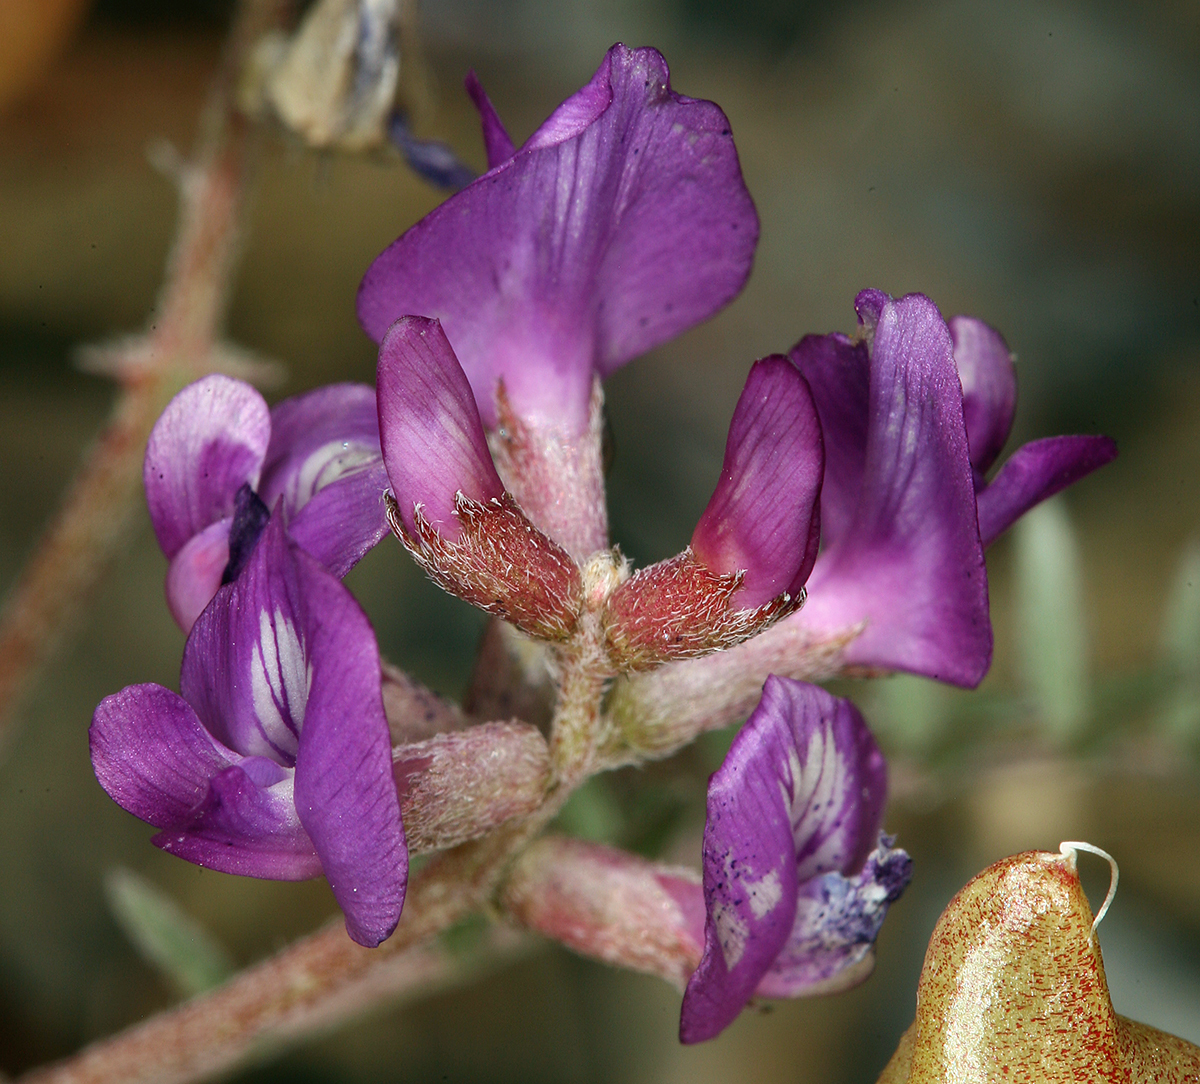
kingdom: Plantae
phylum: Tracheophyta
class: Magnoliopsida
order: Fabales
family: Fabaceae
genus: Astragalus
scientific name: Astragalus lentiginosus
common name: Freckled milkvetch
